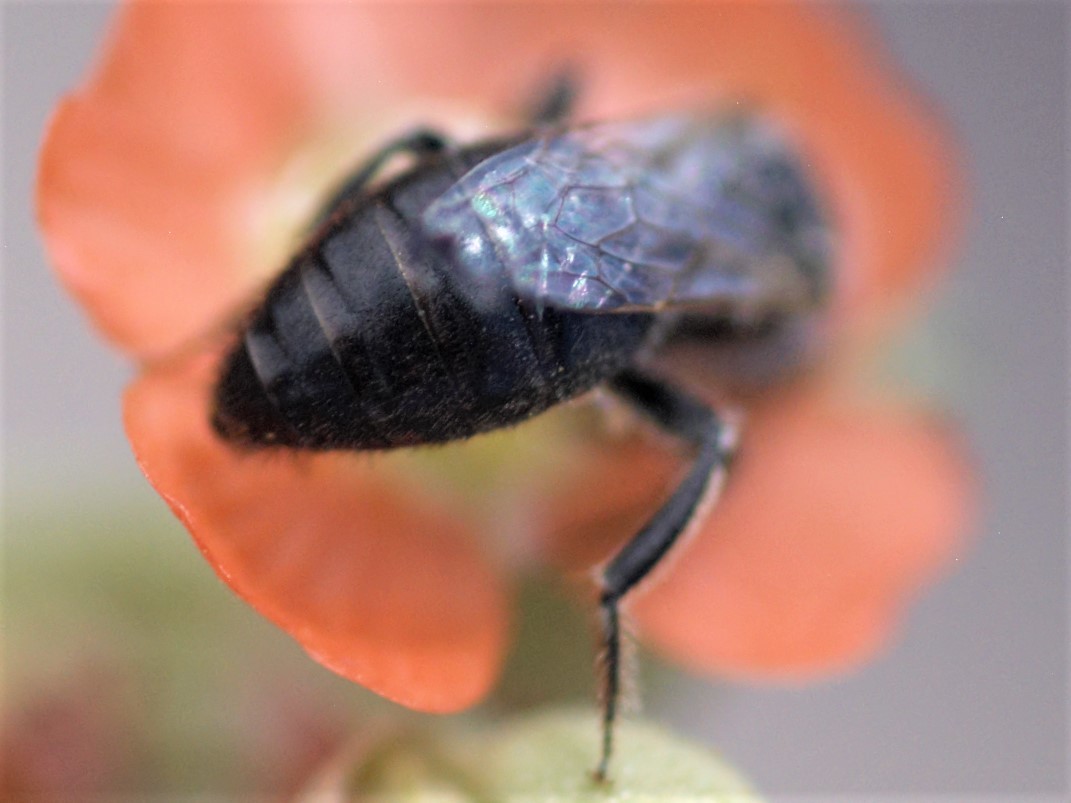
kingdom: Animalia
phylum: Arthropoda
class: Insecta
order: Hymenoptera
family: Andrenidae
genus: Calliopsis
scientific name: Calliopsis subalpina
